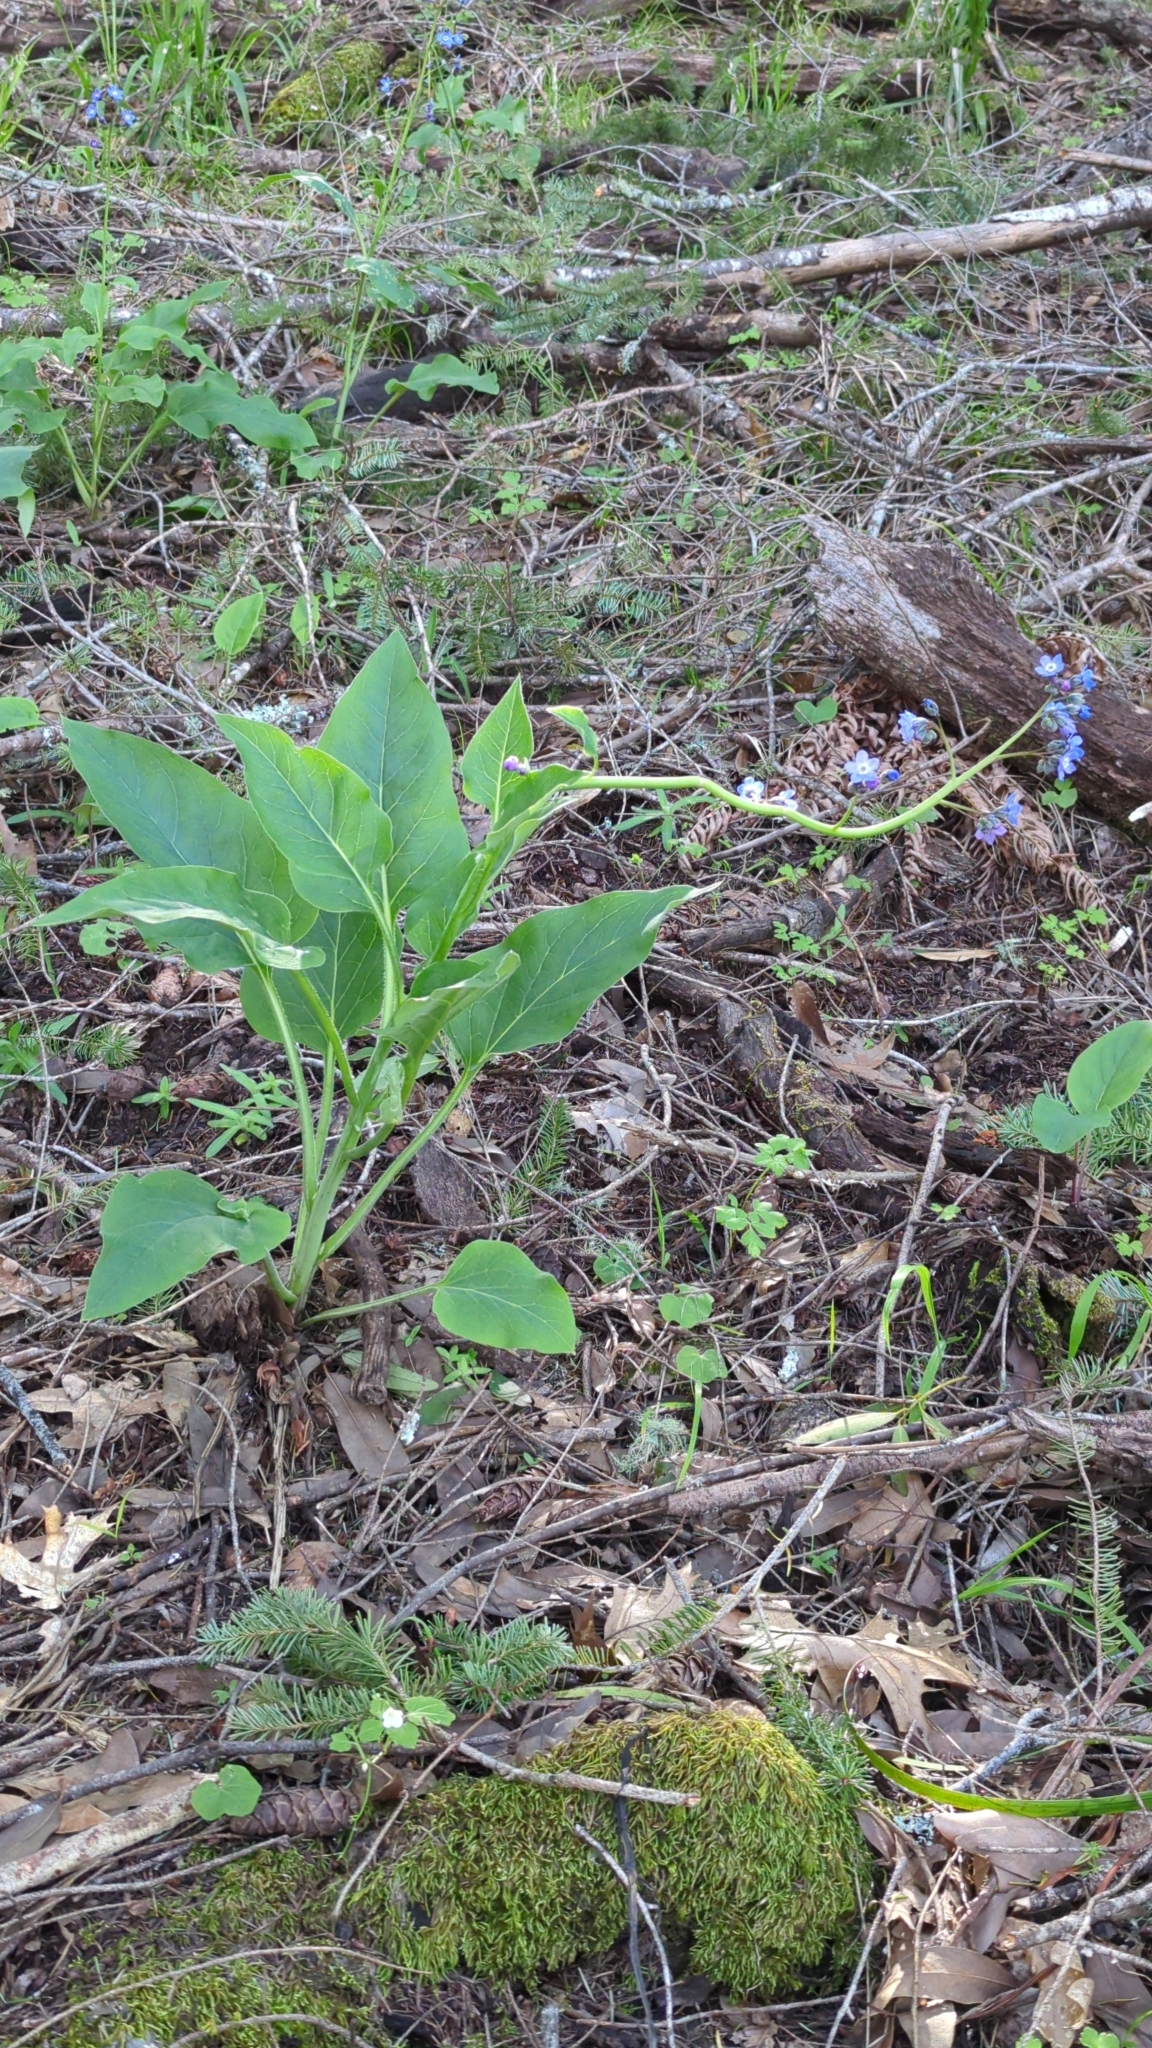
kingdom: Plantae
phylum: Tracheophyta
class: Magnoliopsida
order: Boraginales
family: Boraginaceae
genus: Adelinia
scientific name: Adelinia grande
